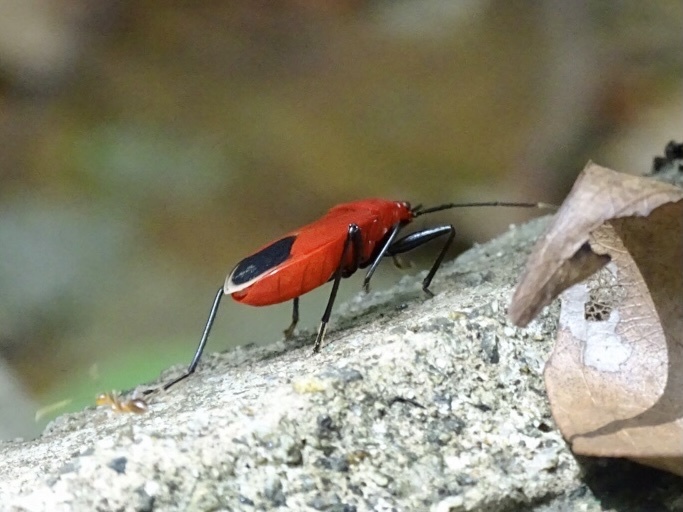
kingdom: Animalia
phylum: Arthropoda
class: Insecta
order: Hemiptera
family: Pyrrhocoridae
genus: Antilochus
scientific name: Antilochus
